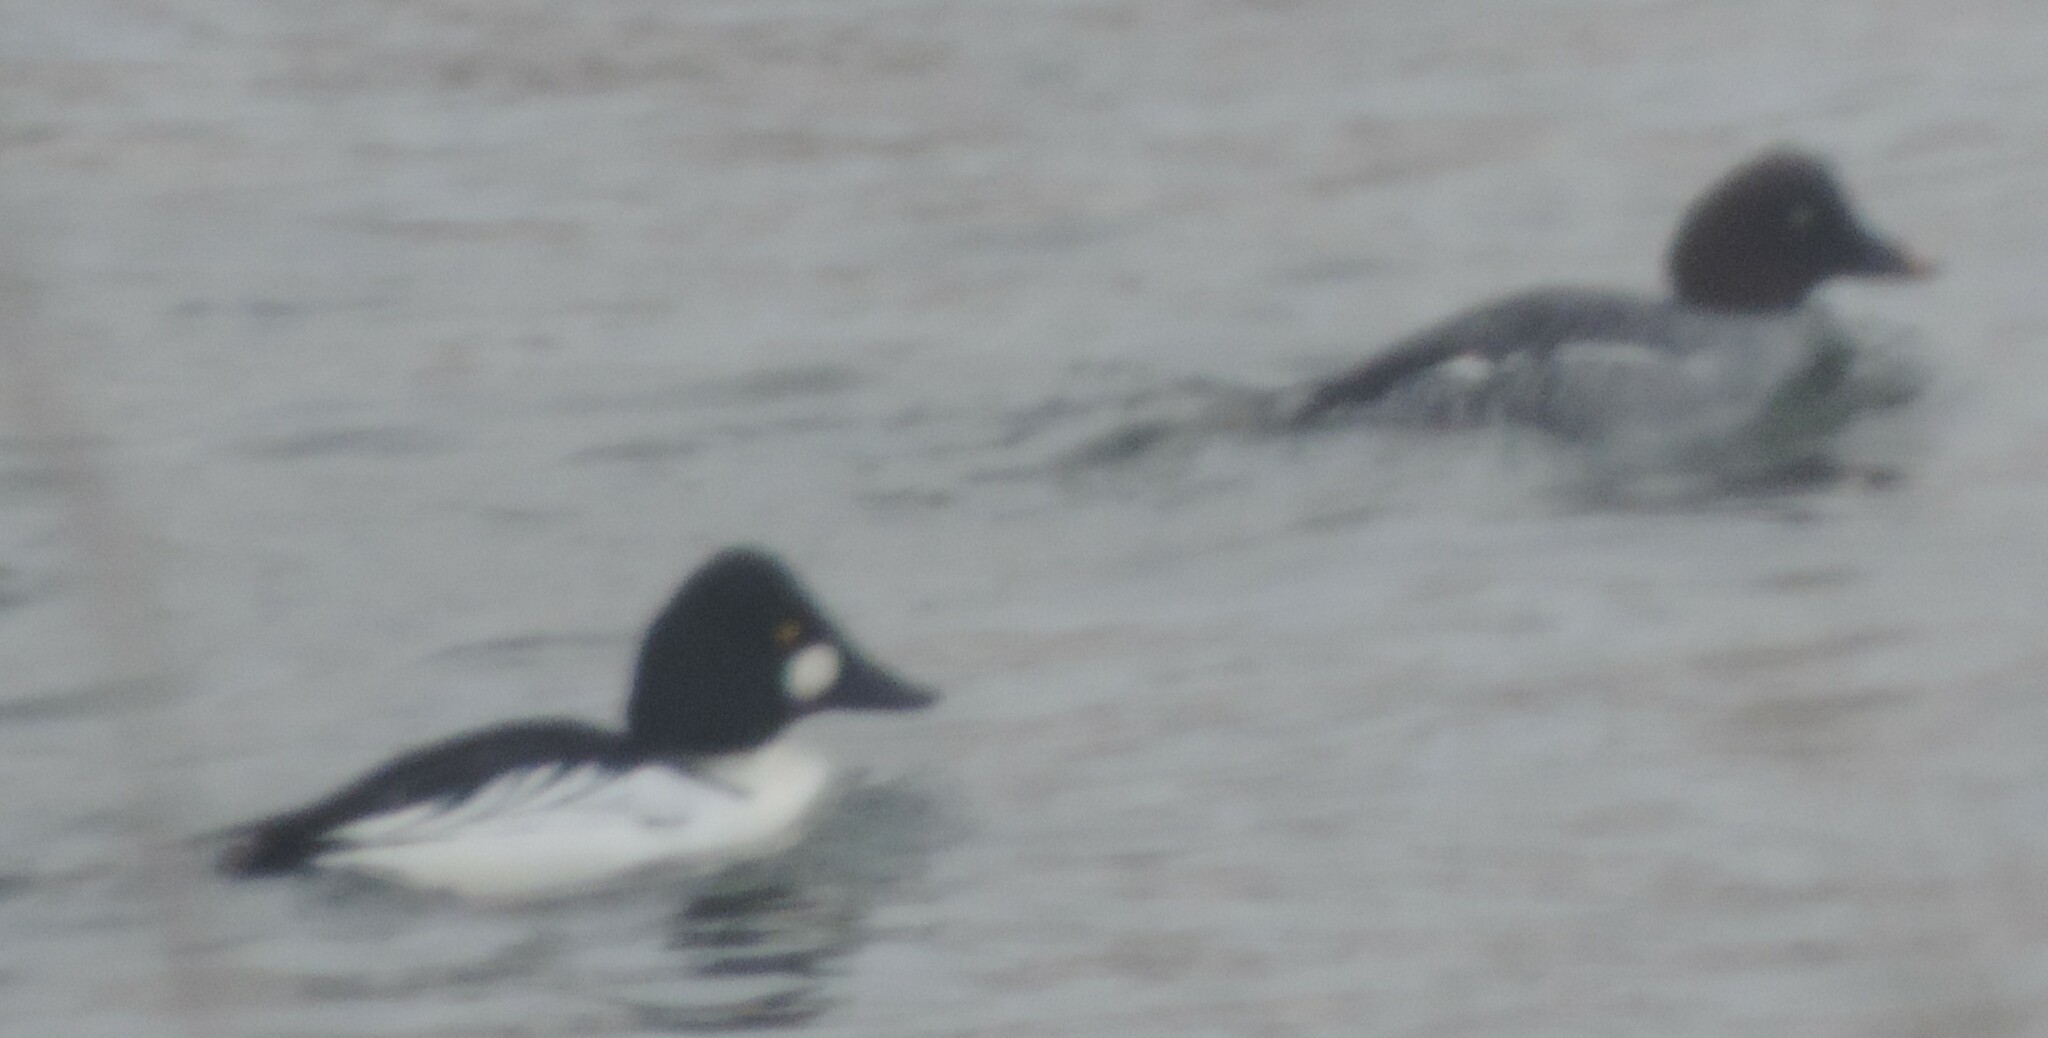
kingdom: Animalia
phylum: Chordata
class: Aves
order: Anseriformes
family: Anatidae
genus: Bucephala
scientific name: Bucephala clangula
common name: Common goldeneye
